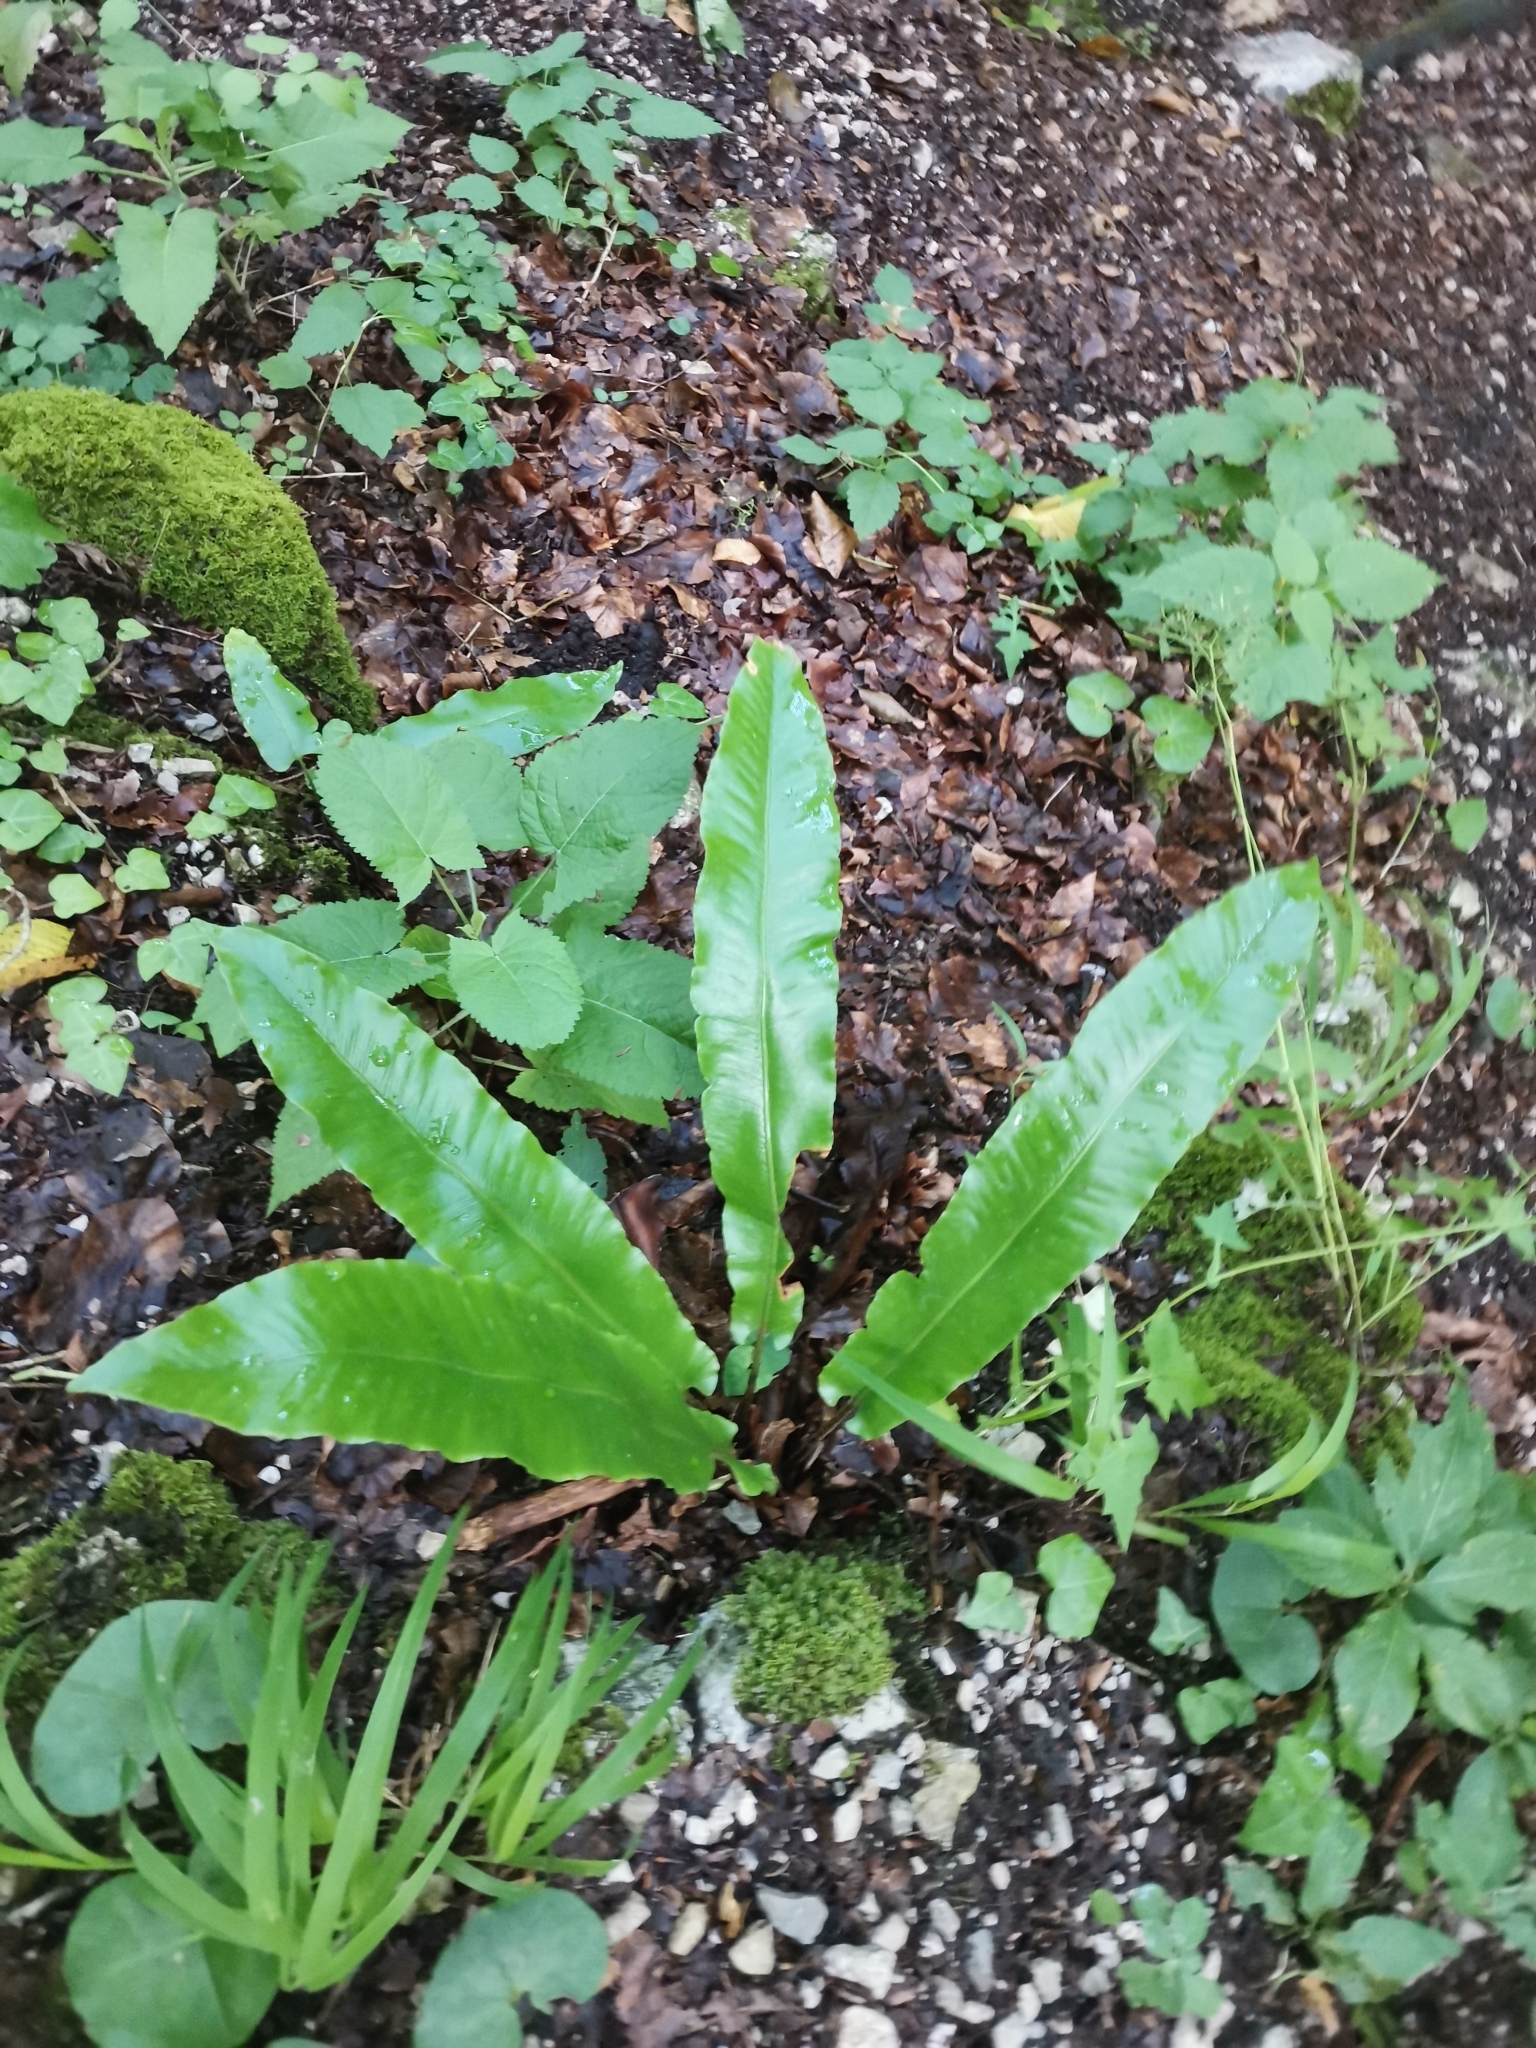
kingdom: Plantae
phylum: Tracheophyta
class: Polypodiopsida
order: Polypodiales
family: Aspleniaceae
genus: Asplenium
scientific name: Asplenium scolopendrium
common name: Hart's-tongue fern
